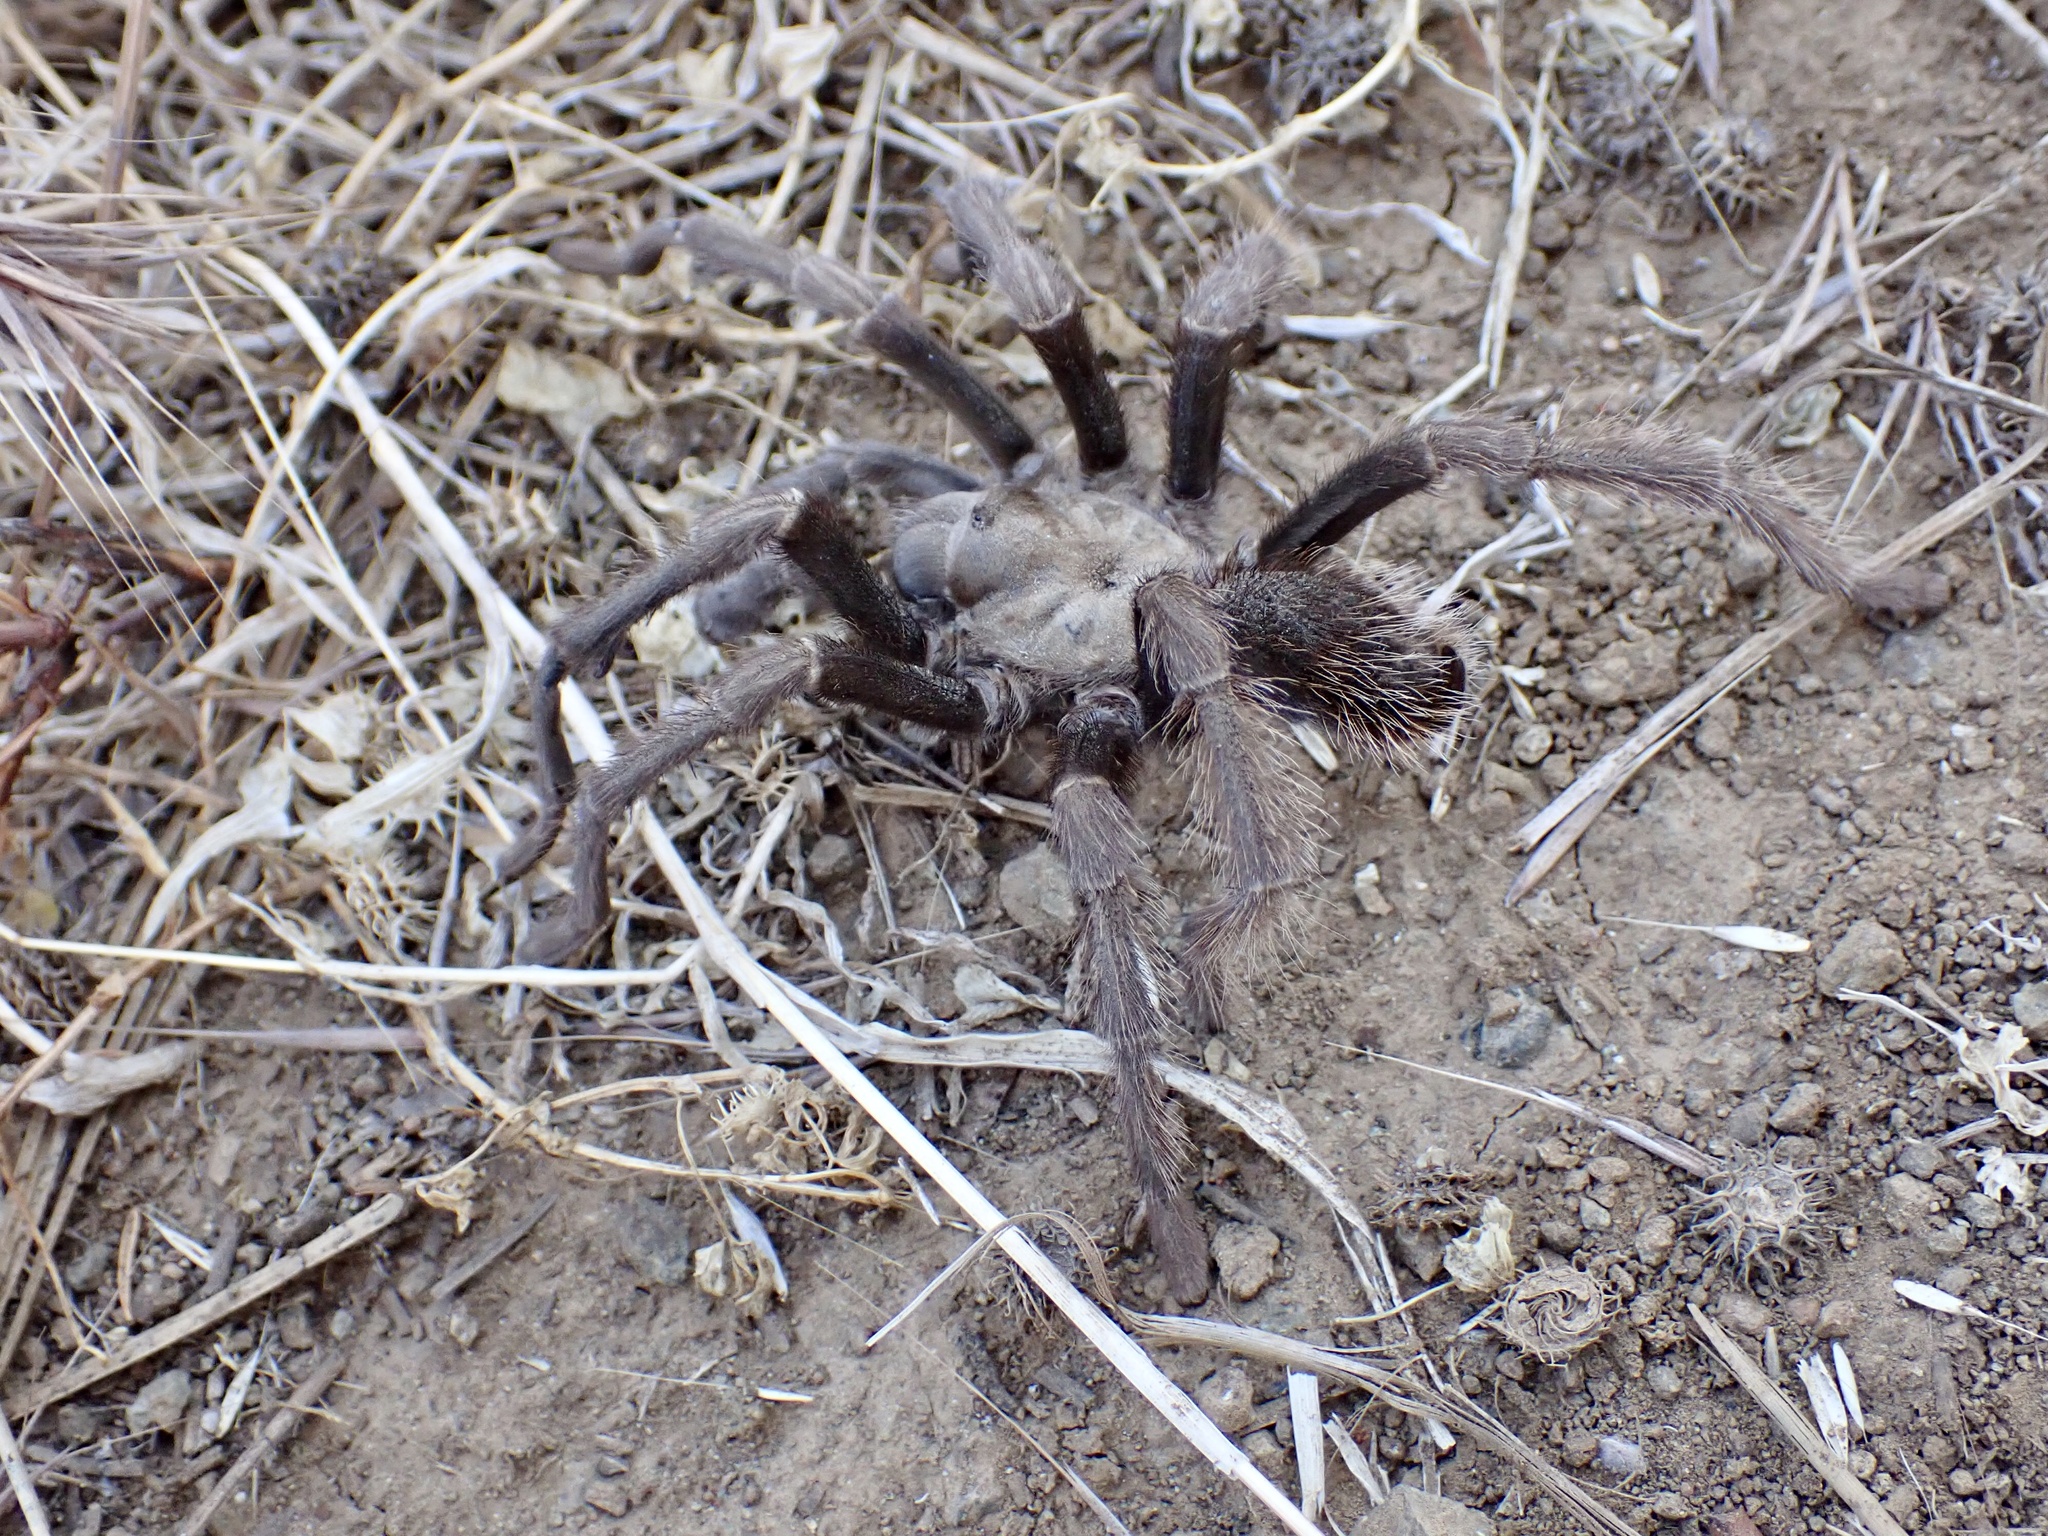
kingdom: Animalia
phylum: Arthropoda
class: Arachnida
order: Araneae
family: Theraphosidae
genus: Aphonopelma
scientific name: Aphonopelma iodius
